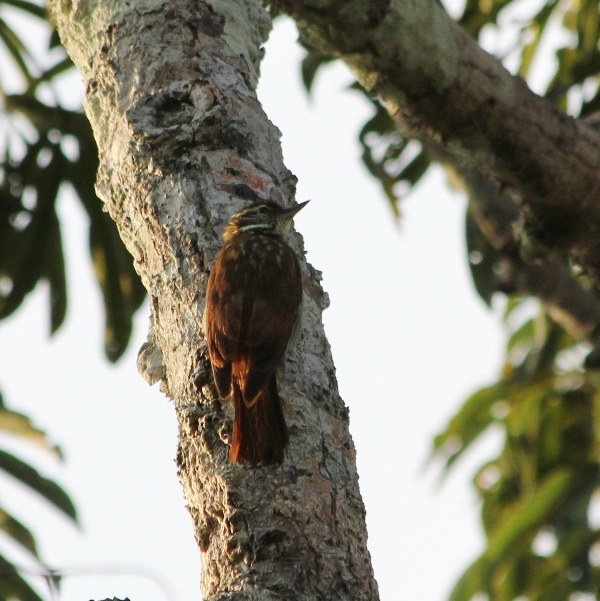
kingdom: Animalia
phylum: Chordata
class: Aves
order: Passeriformes
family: Furnariidae
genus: Xenops
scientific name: Xenops rutilans
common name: Streaked xenops
